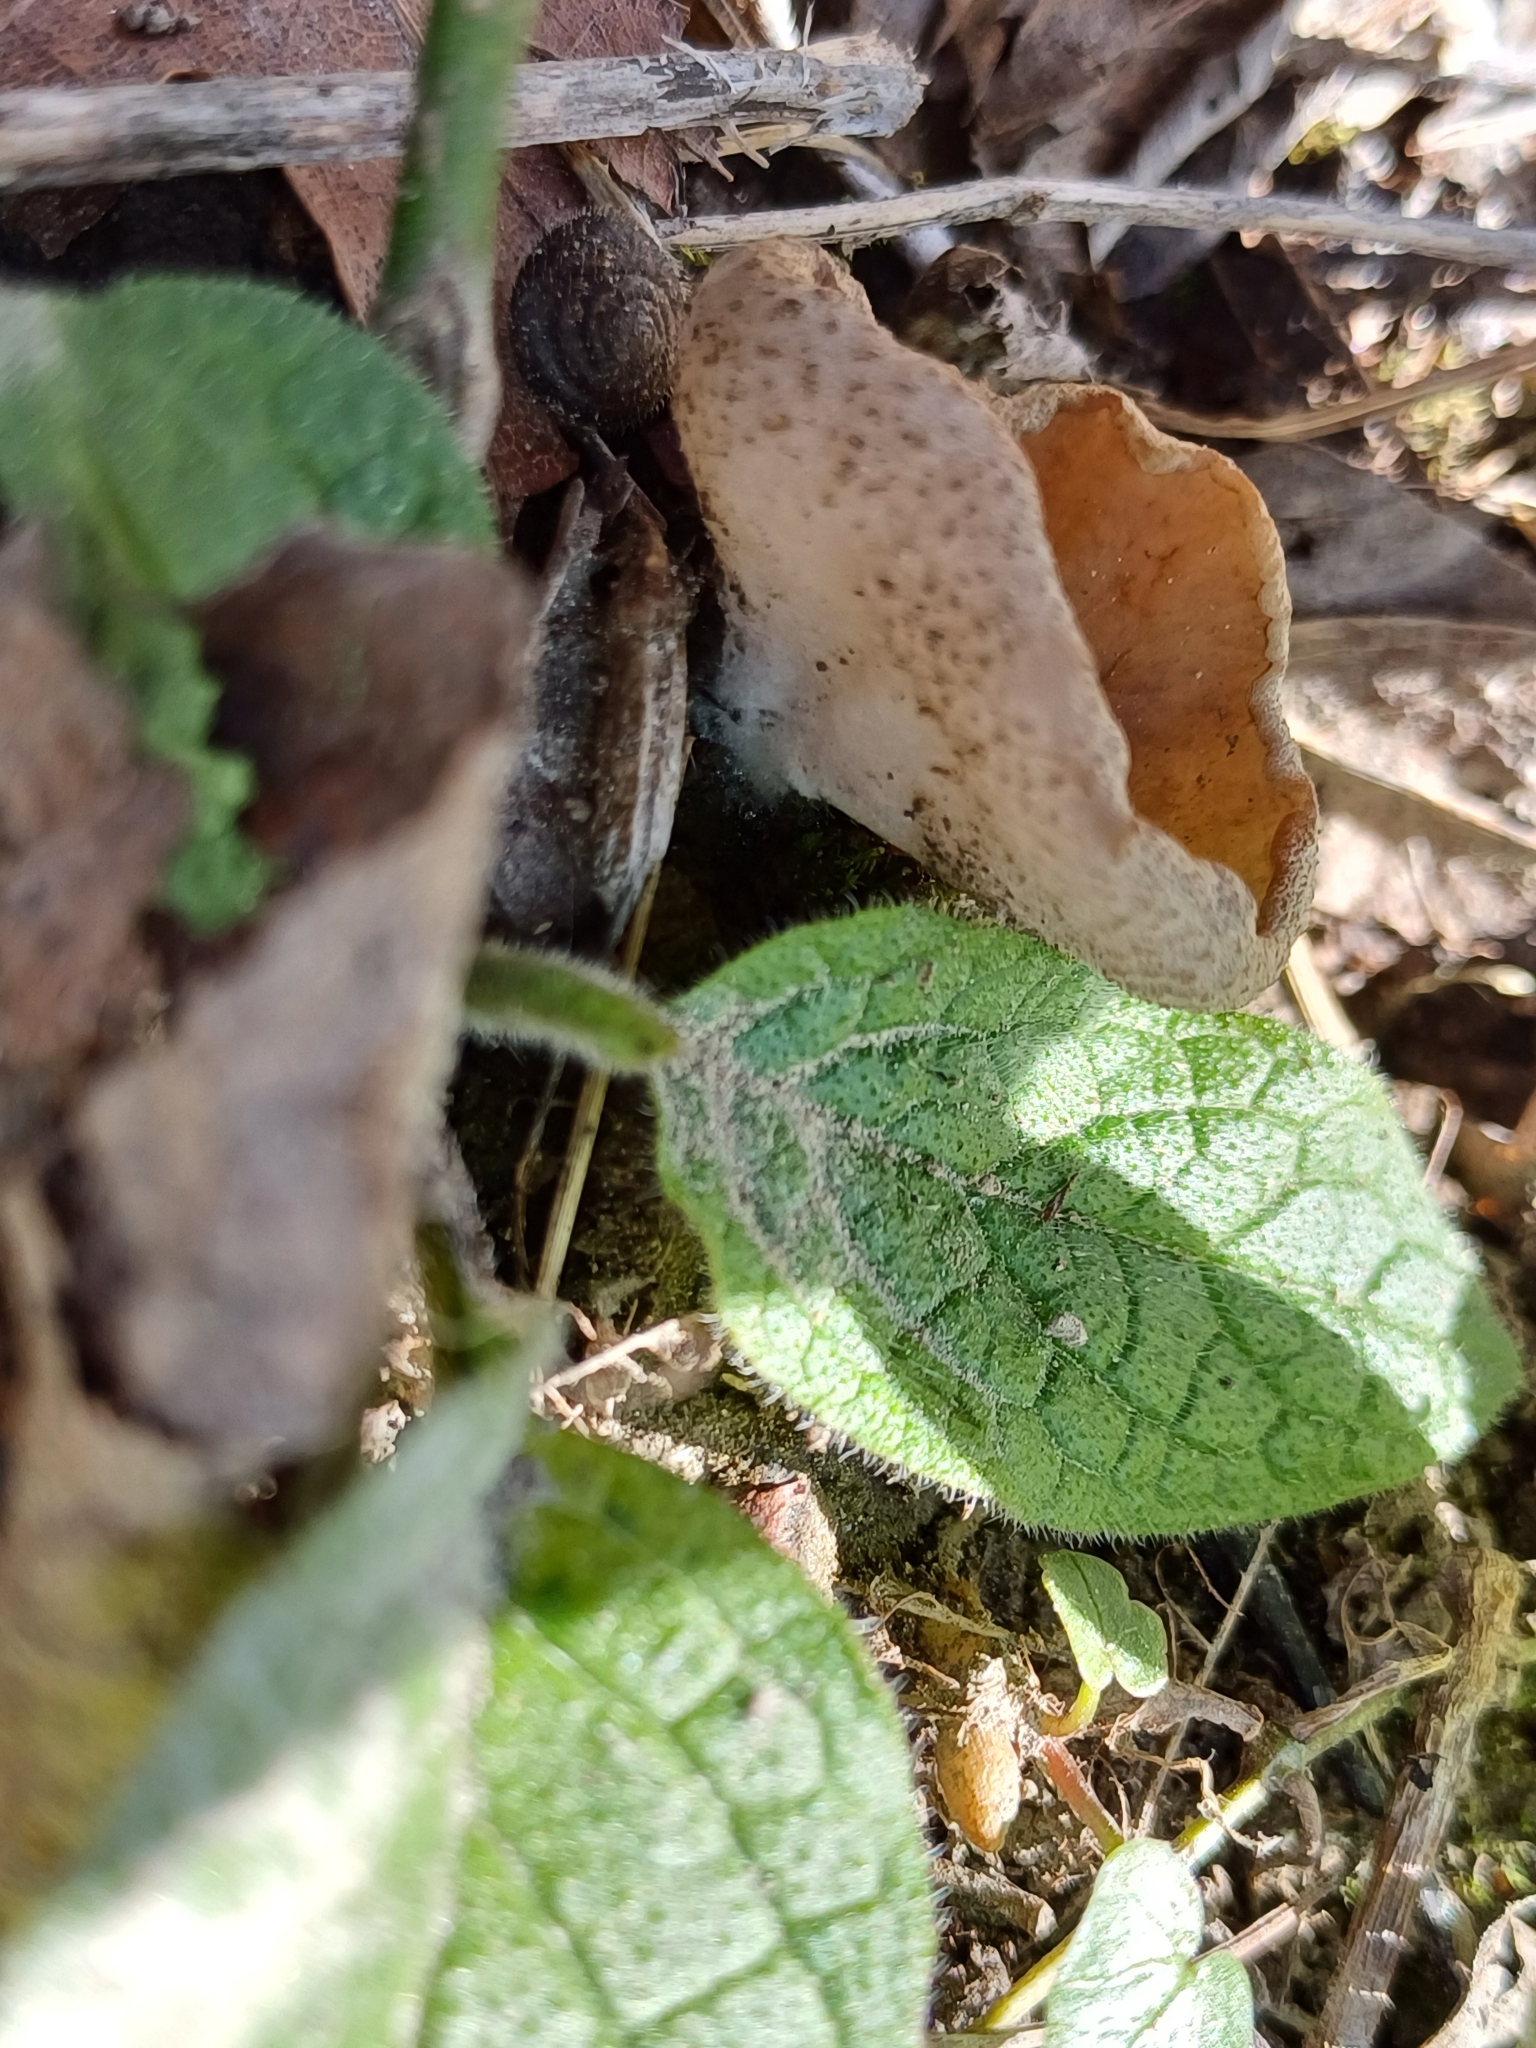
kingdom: Fungi
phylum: Ascomycota
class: Pezizomycetes
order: Pezizales
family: Morchellaceae
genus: Disciotis
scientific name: Disciotis venosa
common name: Bleach cup
